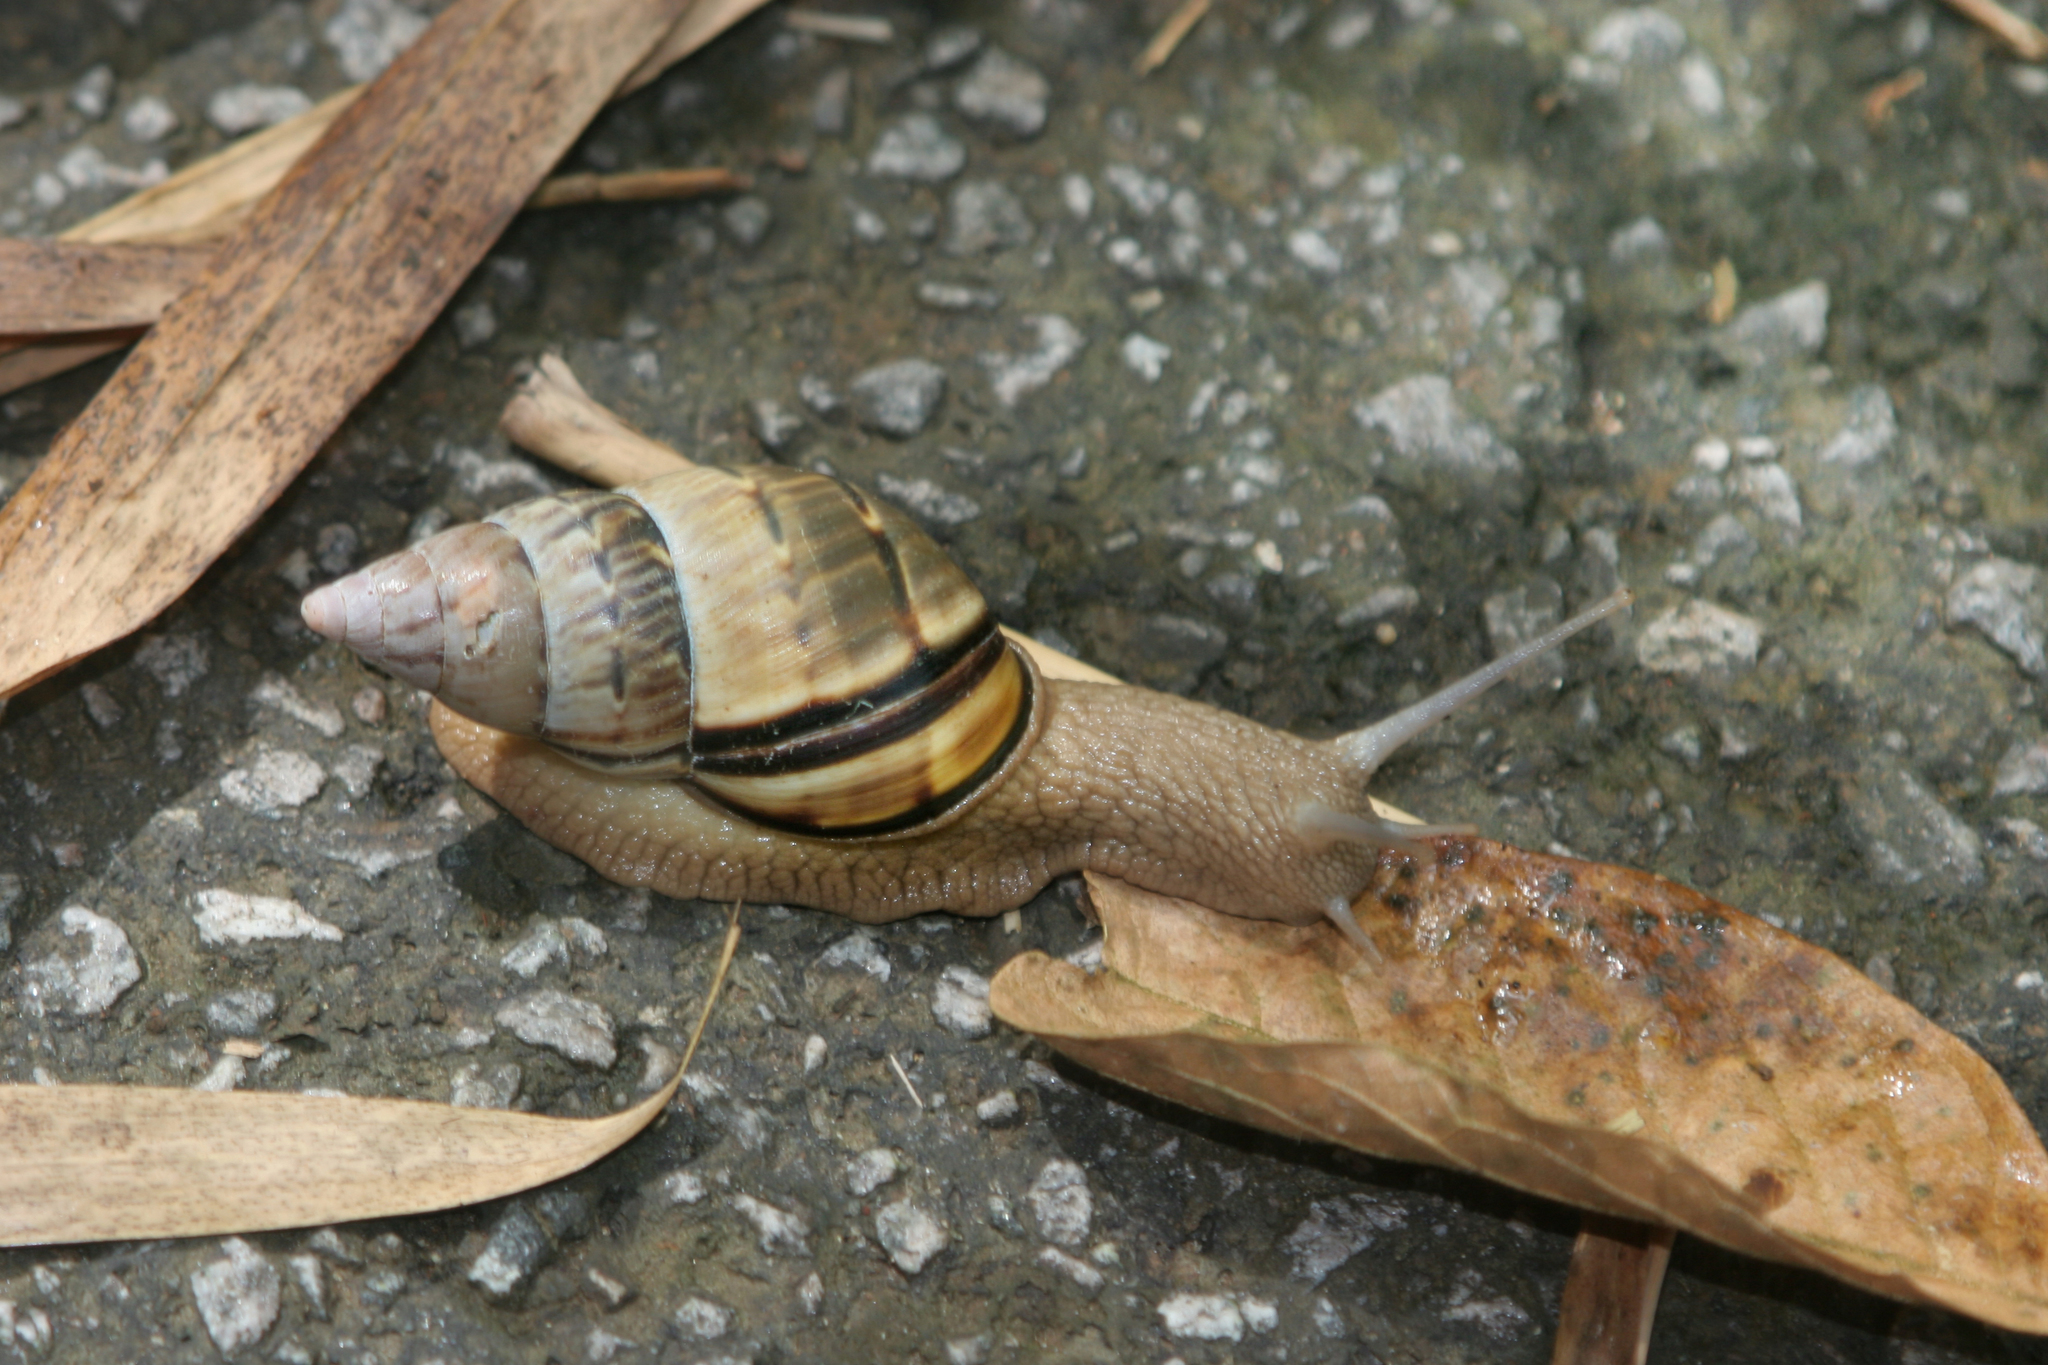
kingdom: Animalia
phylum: Mollusca
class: Gastropoda
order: Stylommatophora
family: Orthalicidae
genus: Orthalicus
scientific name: Orthalicus bensoni
